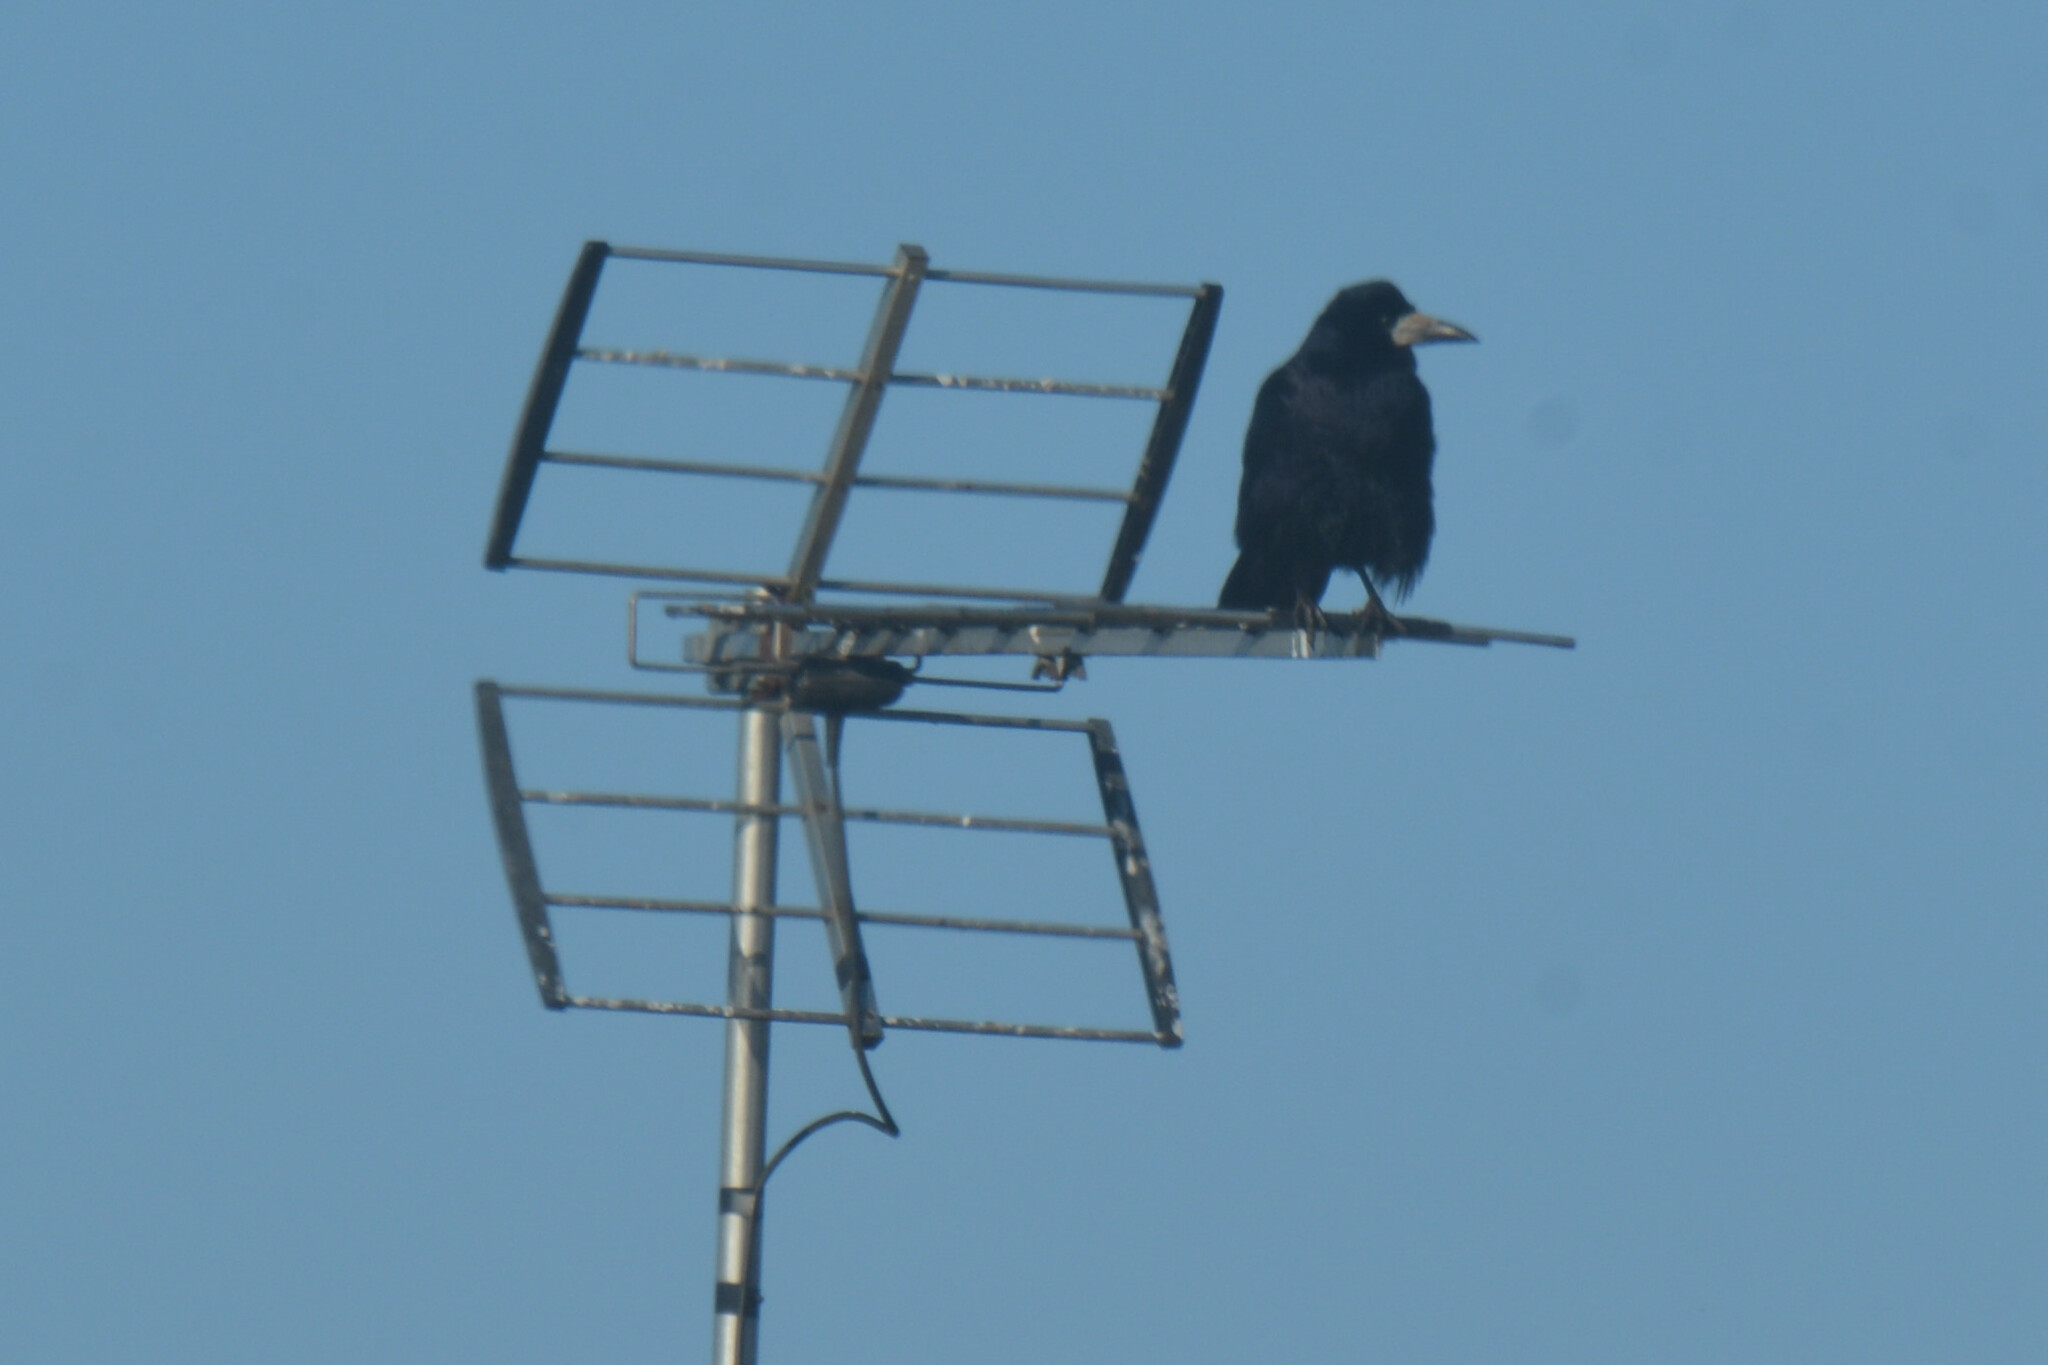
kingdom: Animalia
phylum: Chordata
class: Aves
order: Passeriformes
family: Corvidae
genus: Corvus
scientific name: Corvus frugilegus
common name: Rook
